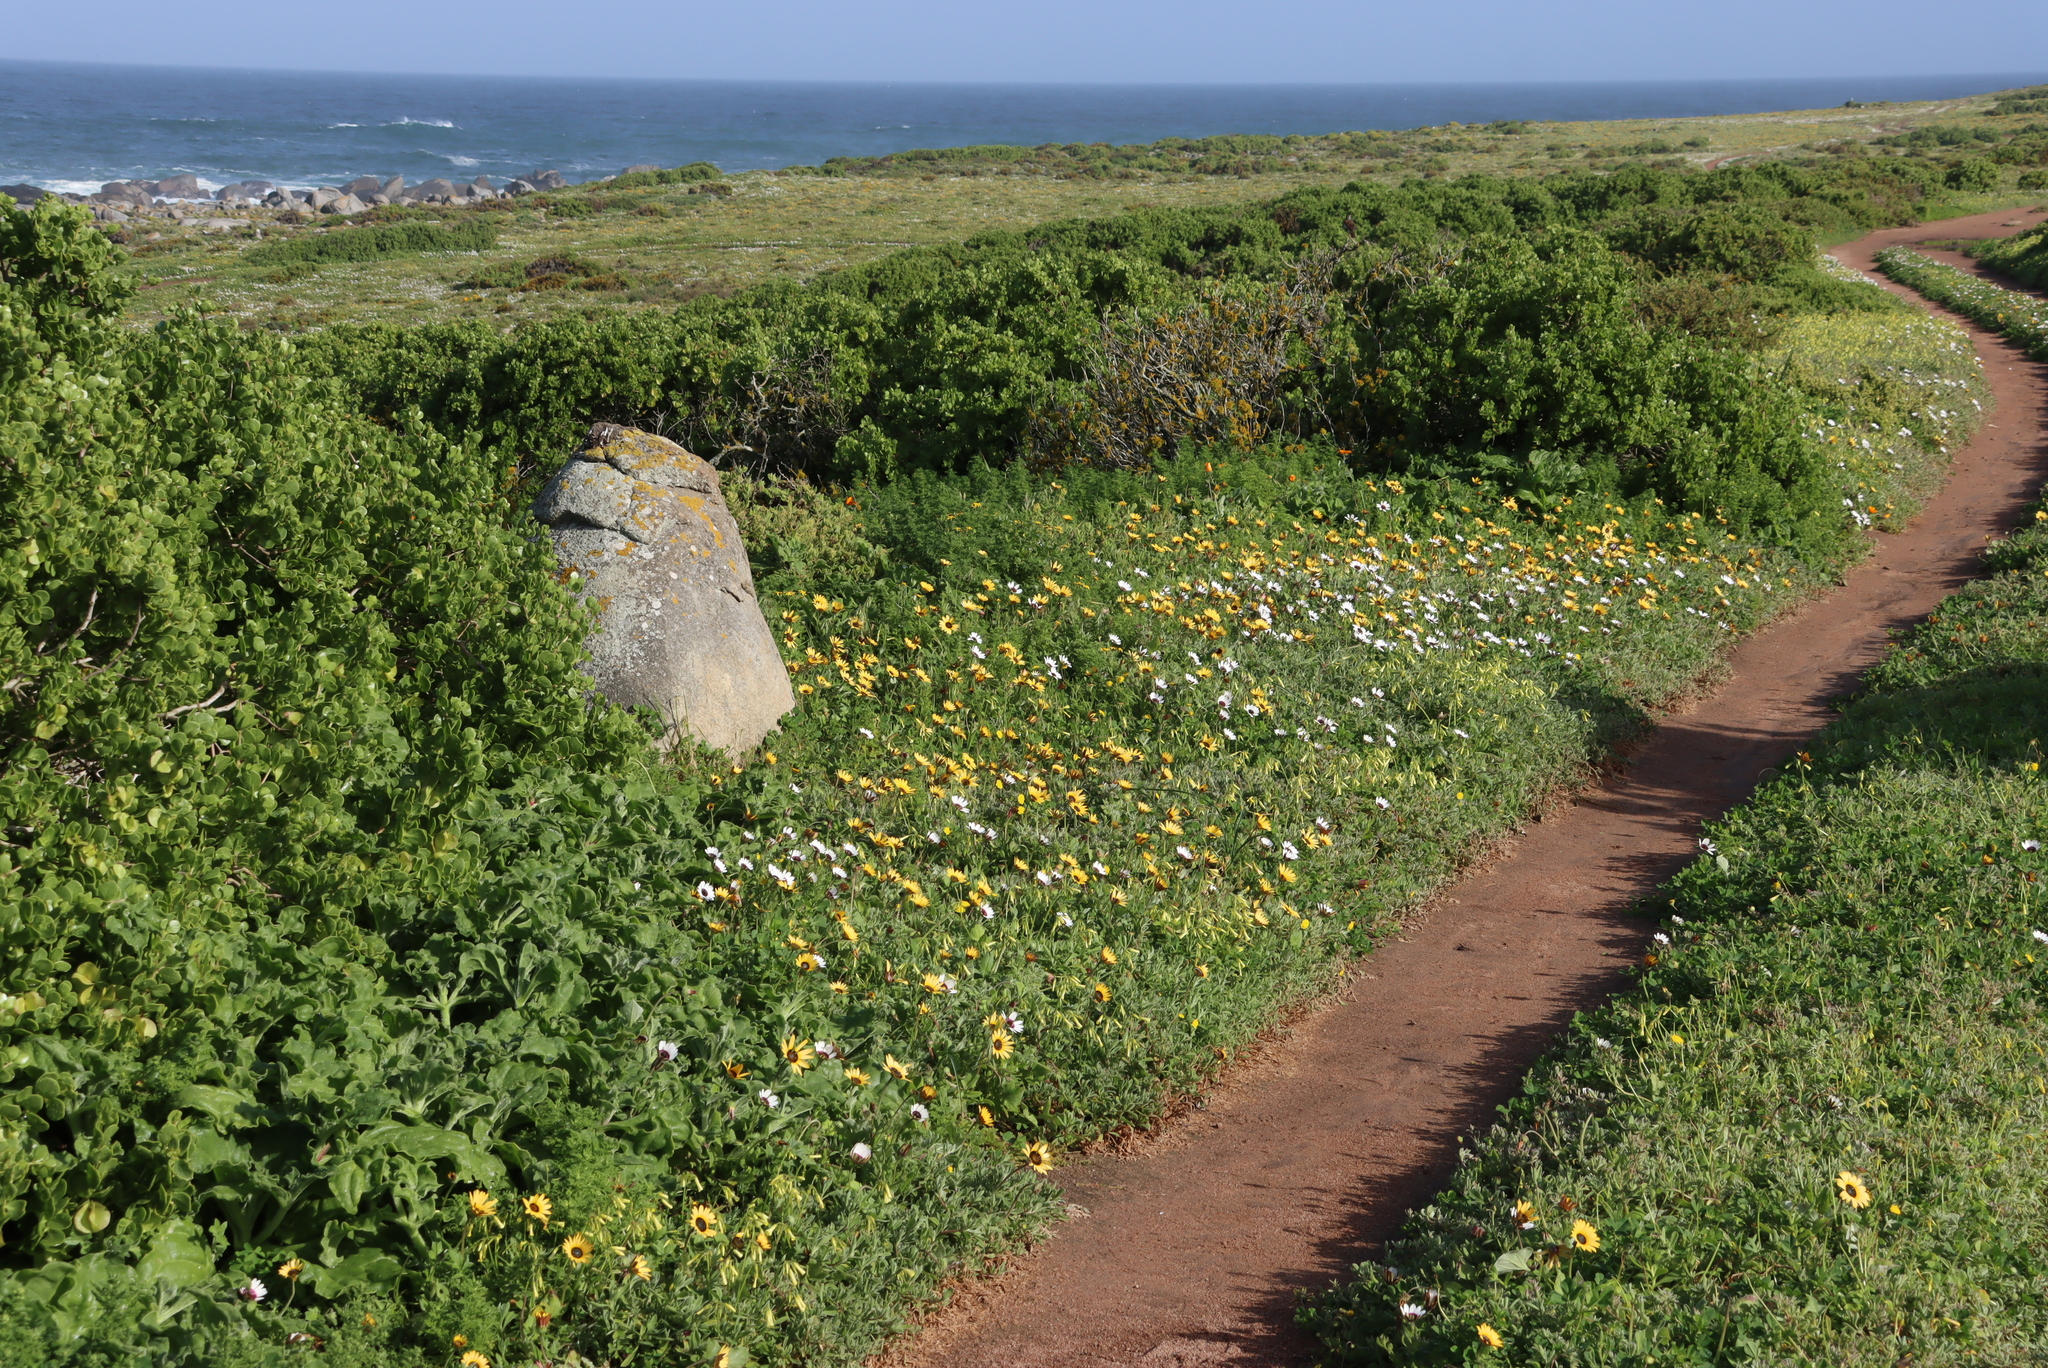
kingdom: Plantae
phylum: Tracheophyta
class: Magnoliopsida
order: Oxalidales
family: Oxalidaceae
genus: Oxalis
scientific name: Oxalis pes-caprae
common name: Bermuda-buttercup
